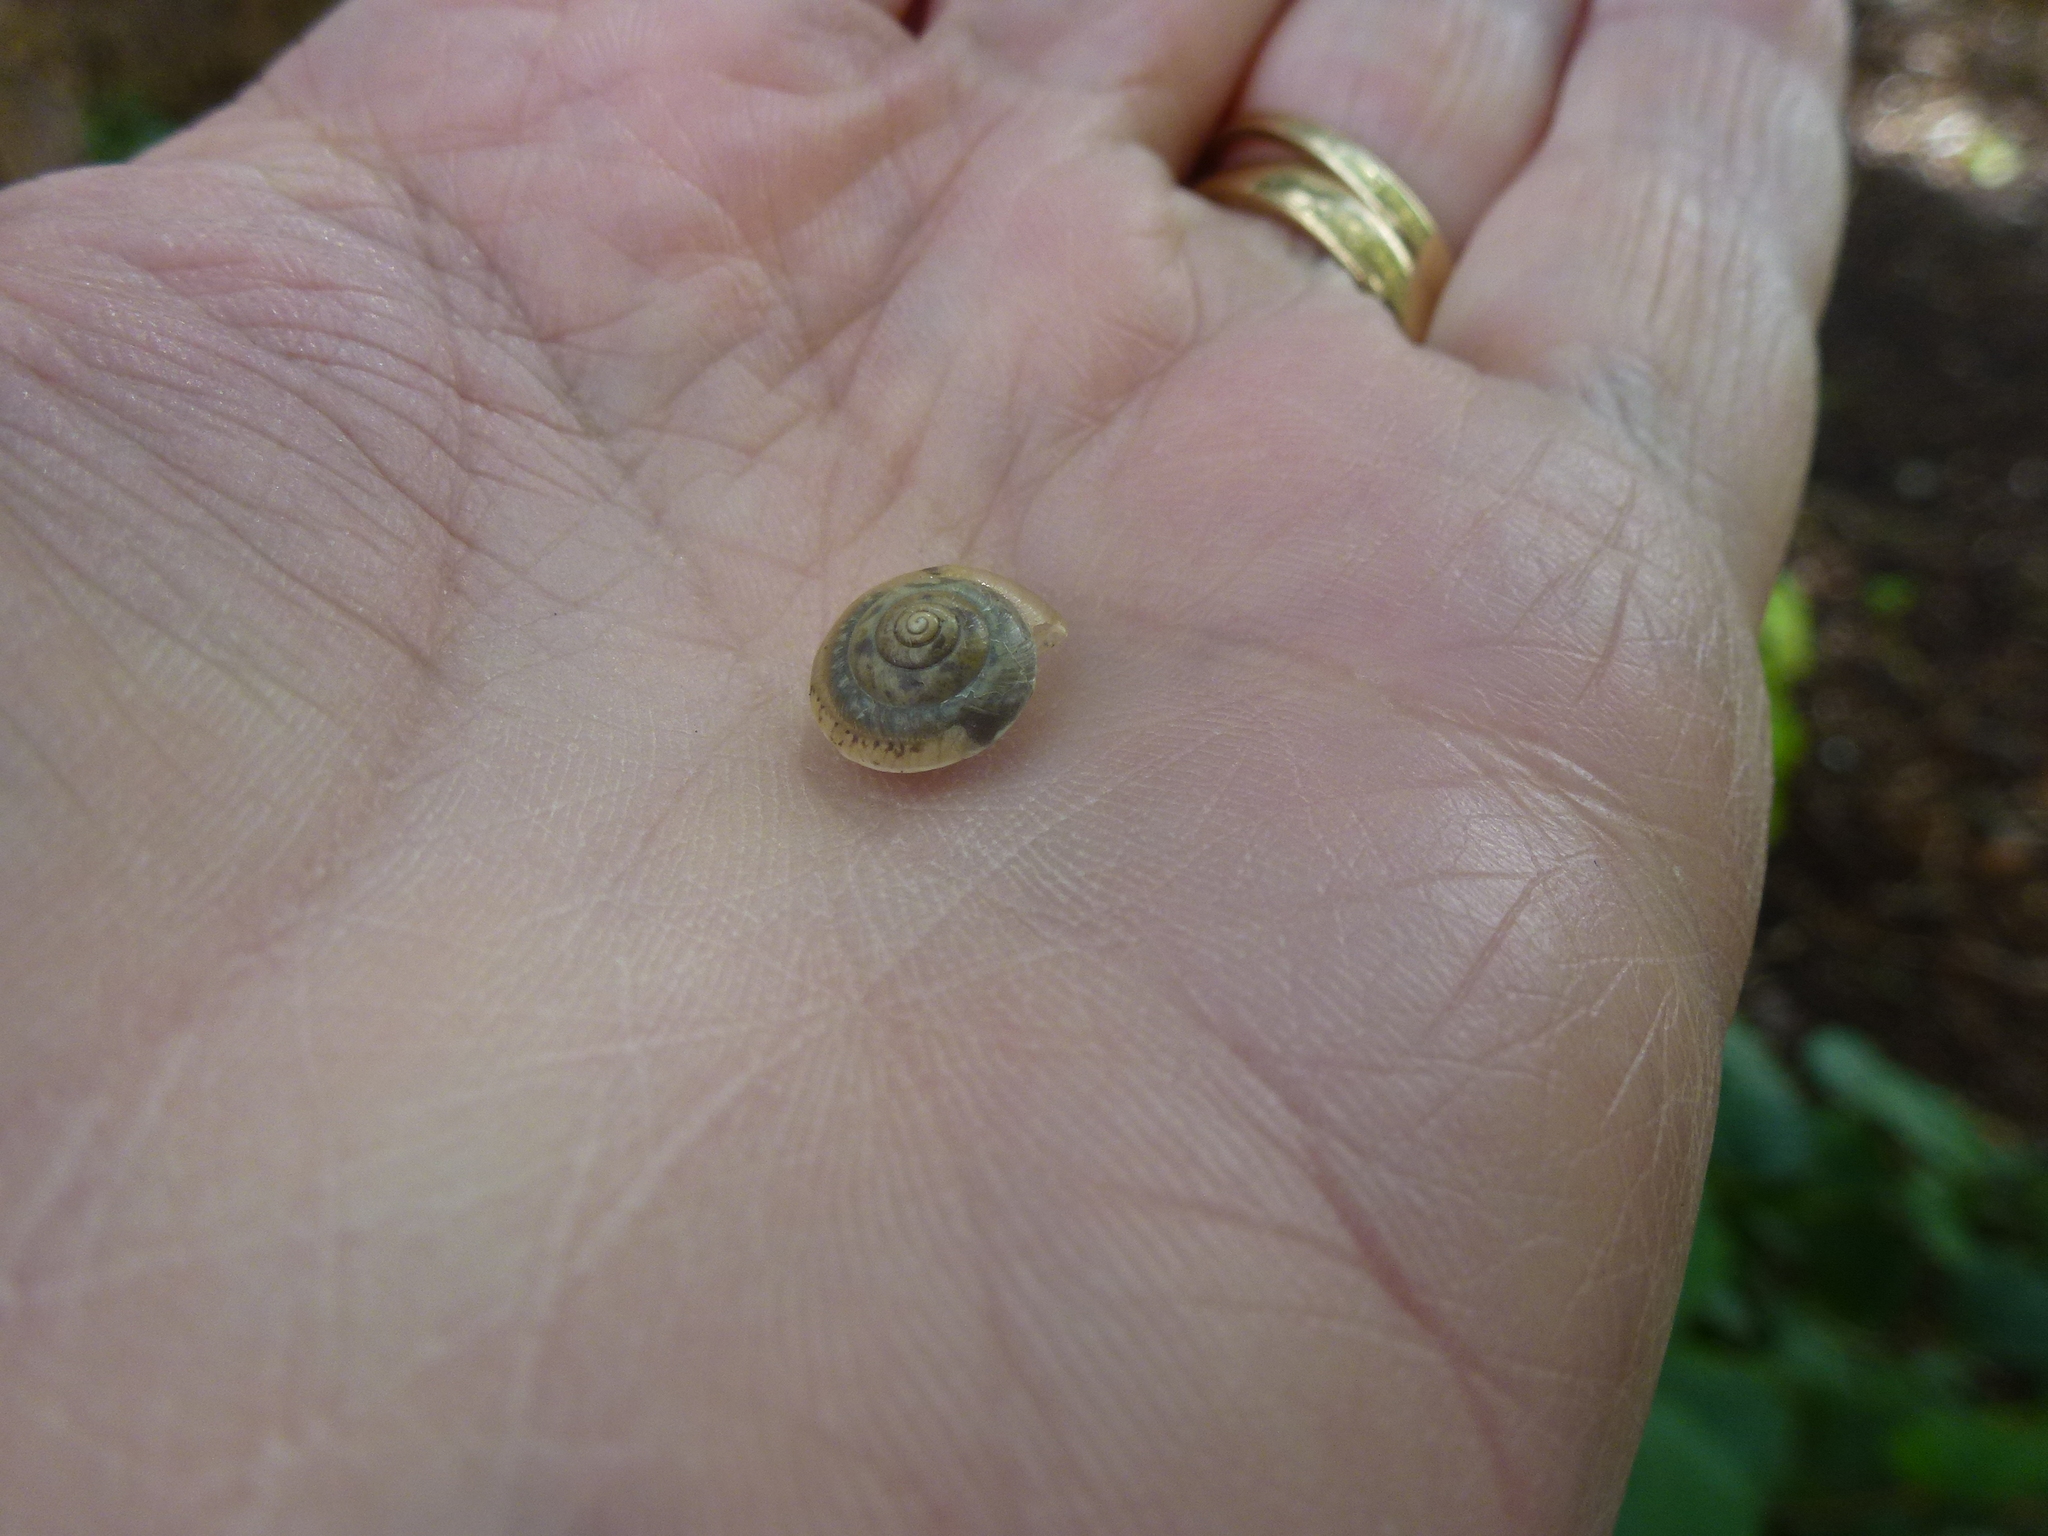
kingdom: Animalia
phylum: Mollusca
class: Gastropoda
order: Stylommatophora
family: Hygromiidae
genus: Trochulus
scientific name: Trochulus striolatus
